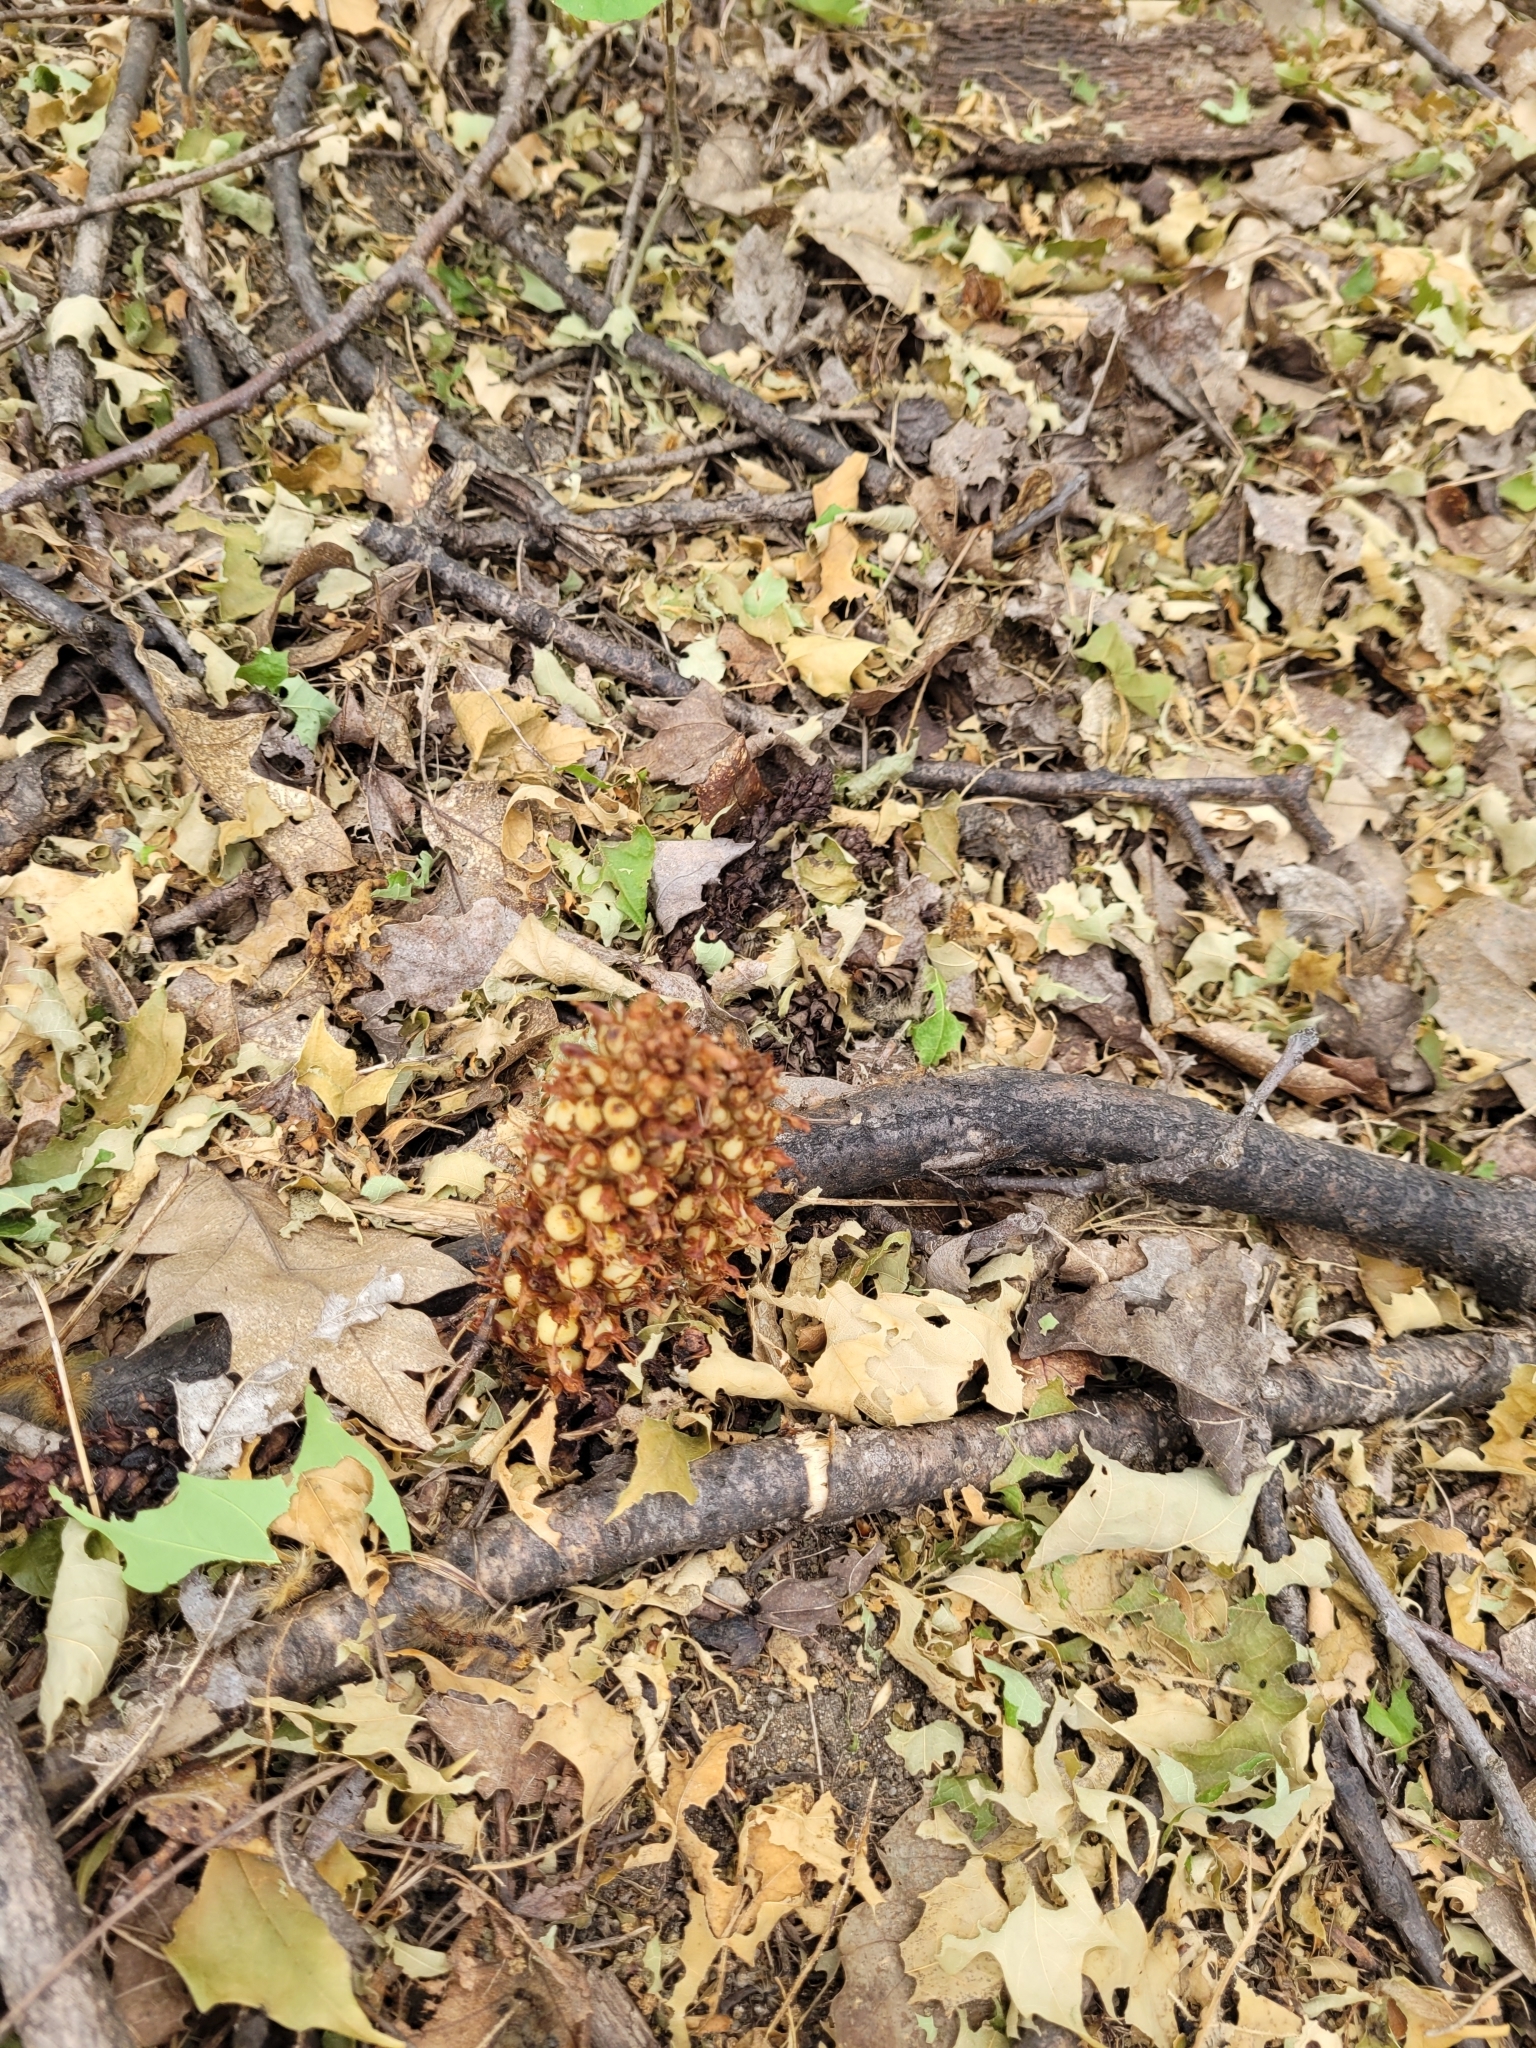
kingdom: Plantae
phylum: Tracheophyta
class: Magnoliopsida
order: Lamiales
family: Orobanchaceae
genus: Conopholis
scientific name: Conopholis americana
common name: American cancer-root
